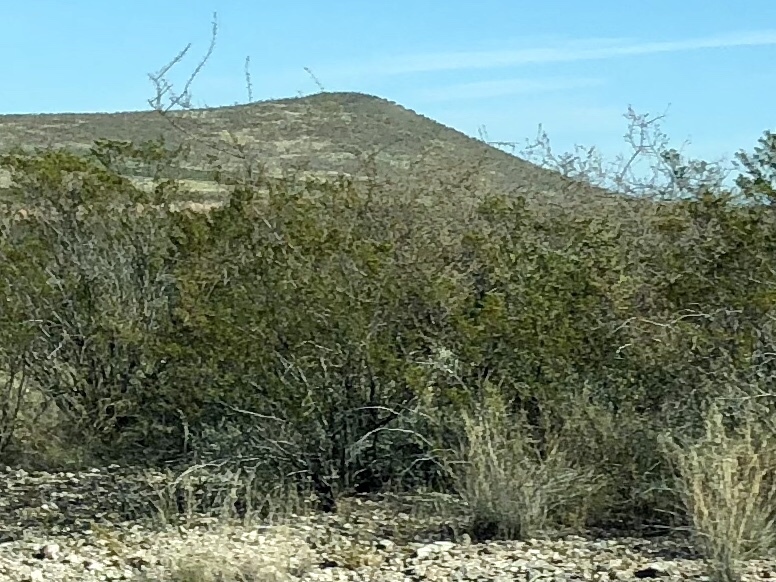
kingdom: Plantae
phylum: Tracheophyta
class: Magnoliopsida
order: Zygophyllales
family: Zygophyllaceae
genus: Larrea
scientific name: Larrea tridentata
